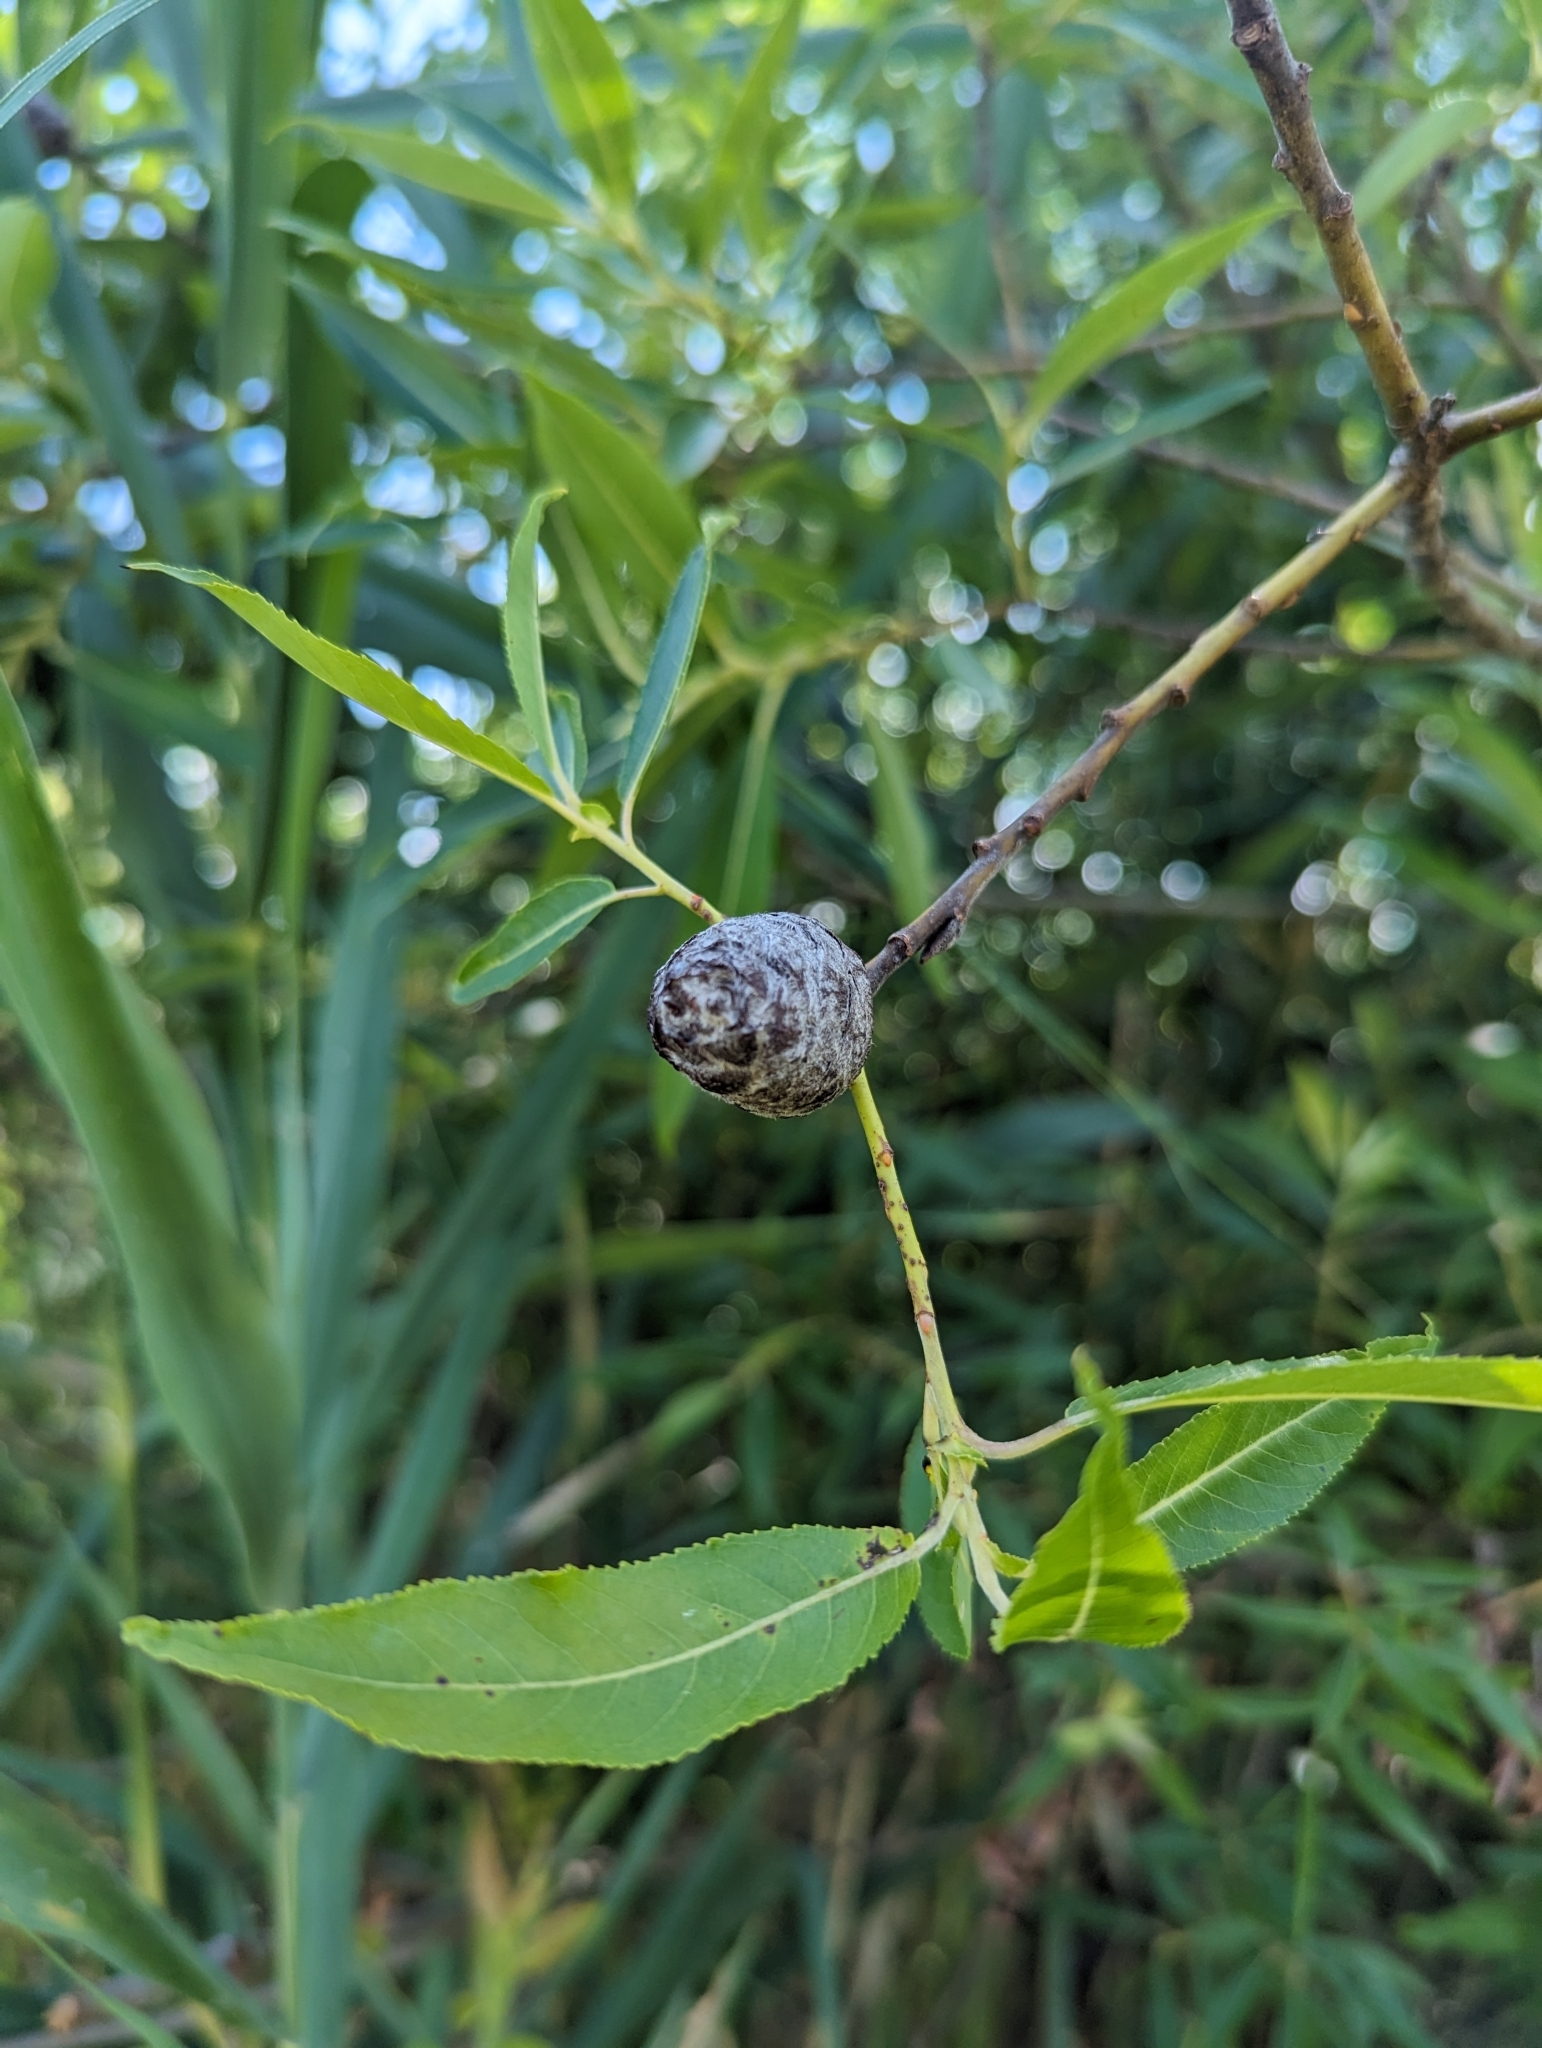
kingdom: Animalia
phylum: Arthropoda
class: Insecta
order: Diptera
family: Cecidomyiidae
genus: Rabdophaga
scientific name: Rabdophaga strobiloides
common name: Willow pinecone gall midge
